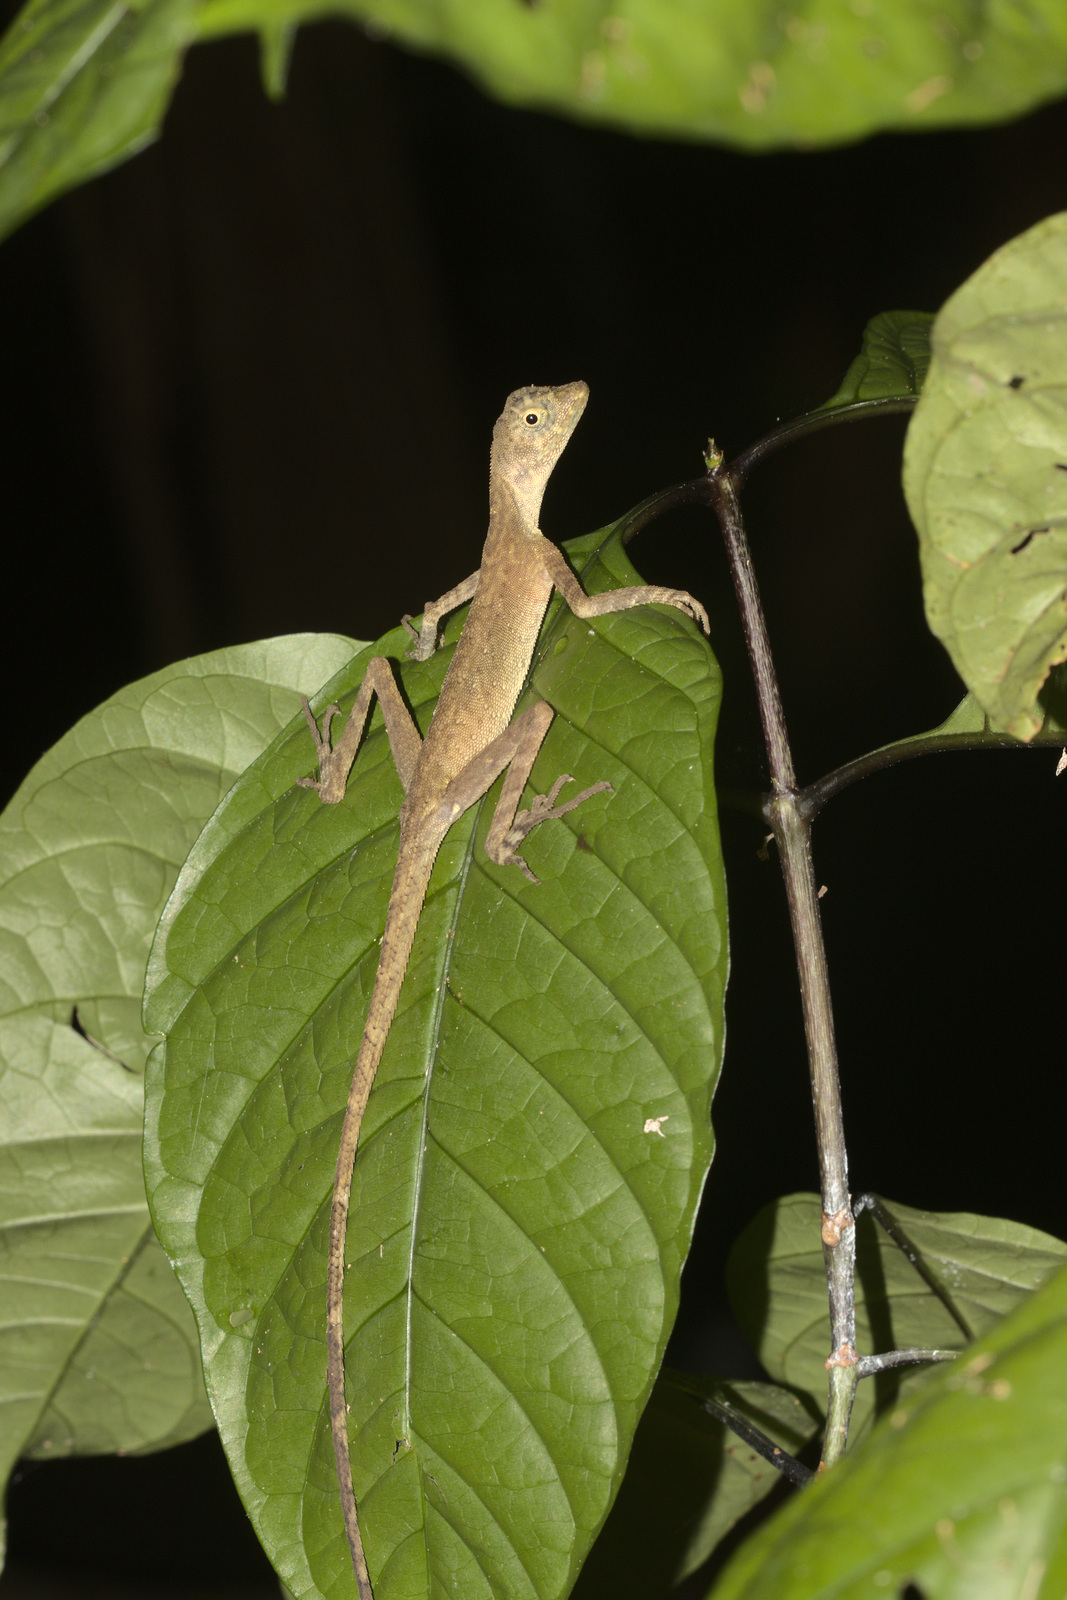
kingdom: Animalia
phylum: Chordata
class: Squamata
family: Agamidae
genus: Aphaniotis
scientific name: Aphaniotis fusca
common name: Dusky earless agama
